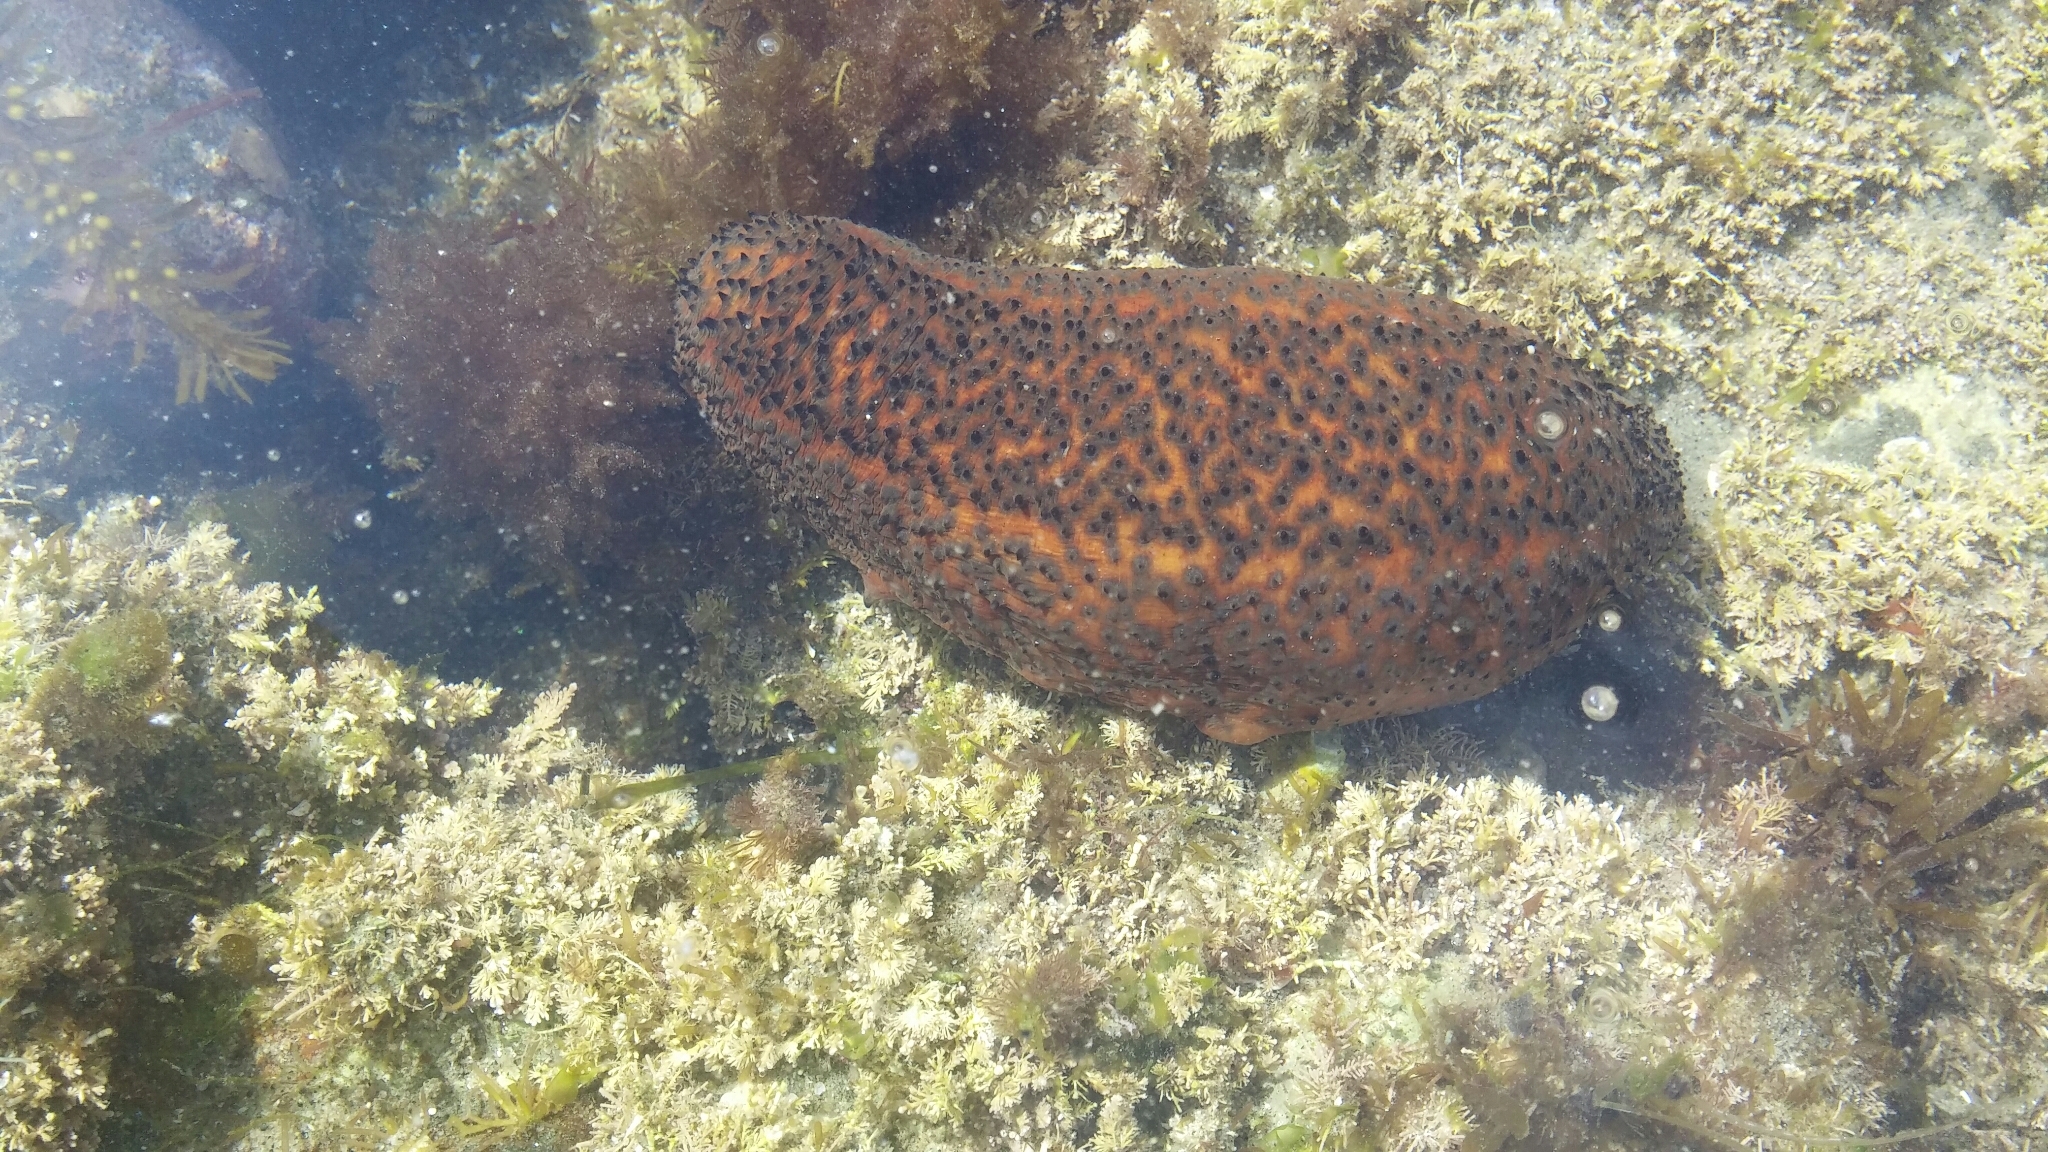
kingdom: Animalia
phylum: Echinodermata
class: Holothuroidea
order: Synallactida
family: Stichopodidae
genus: Apostichopus
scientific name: Apostichopus parvimensis
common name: Warty sea cucumber
